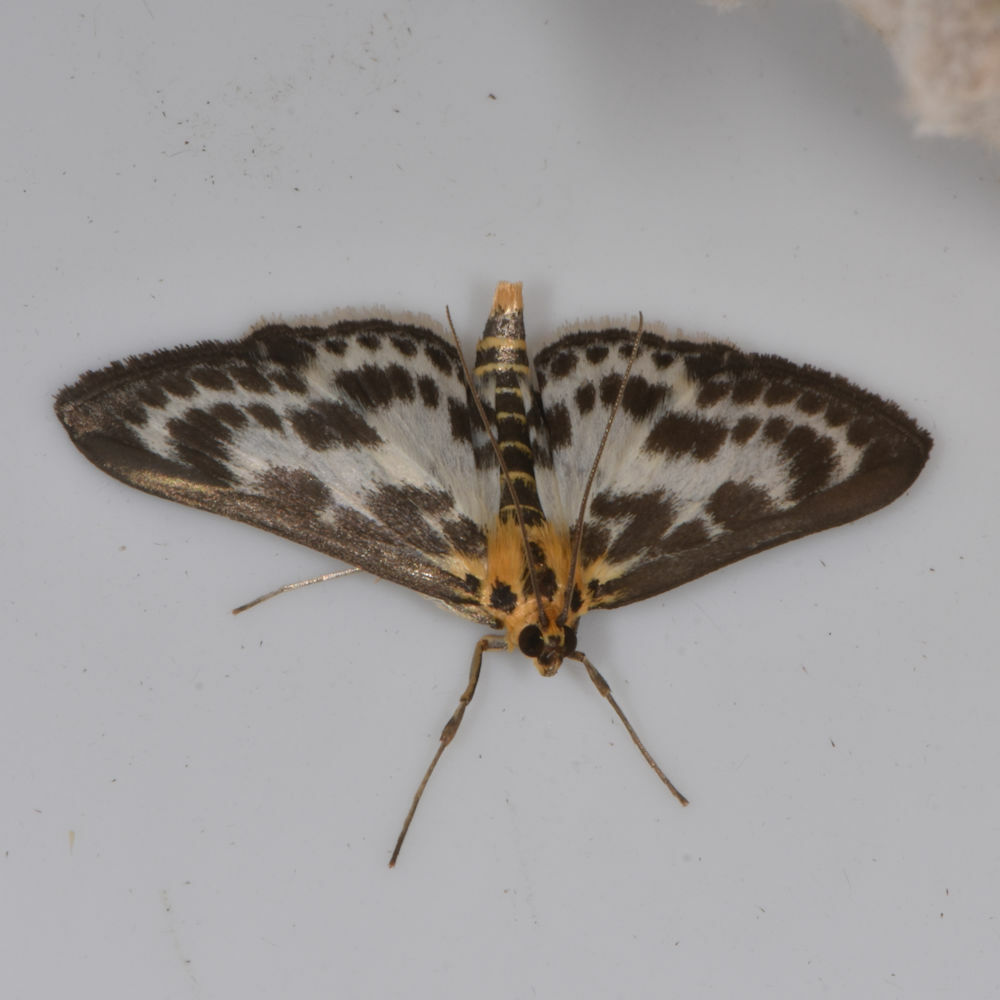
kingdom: Animalia
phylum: Arthropoda
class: Insecta
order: Lepidoptera
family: Crambidae
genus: Anania
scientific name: Anania hortulata
